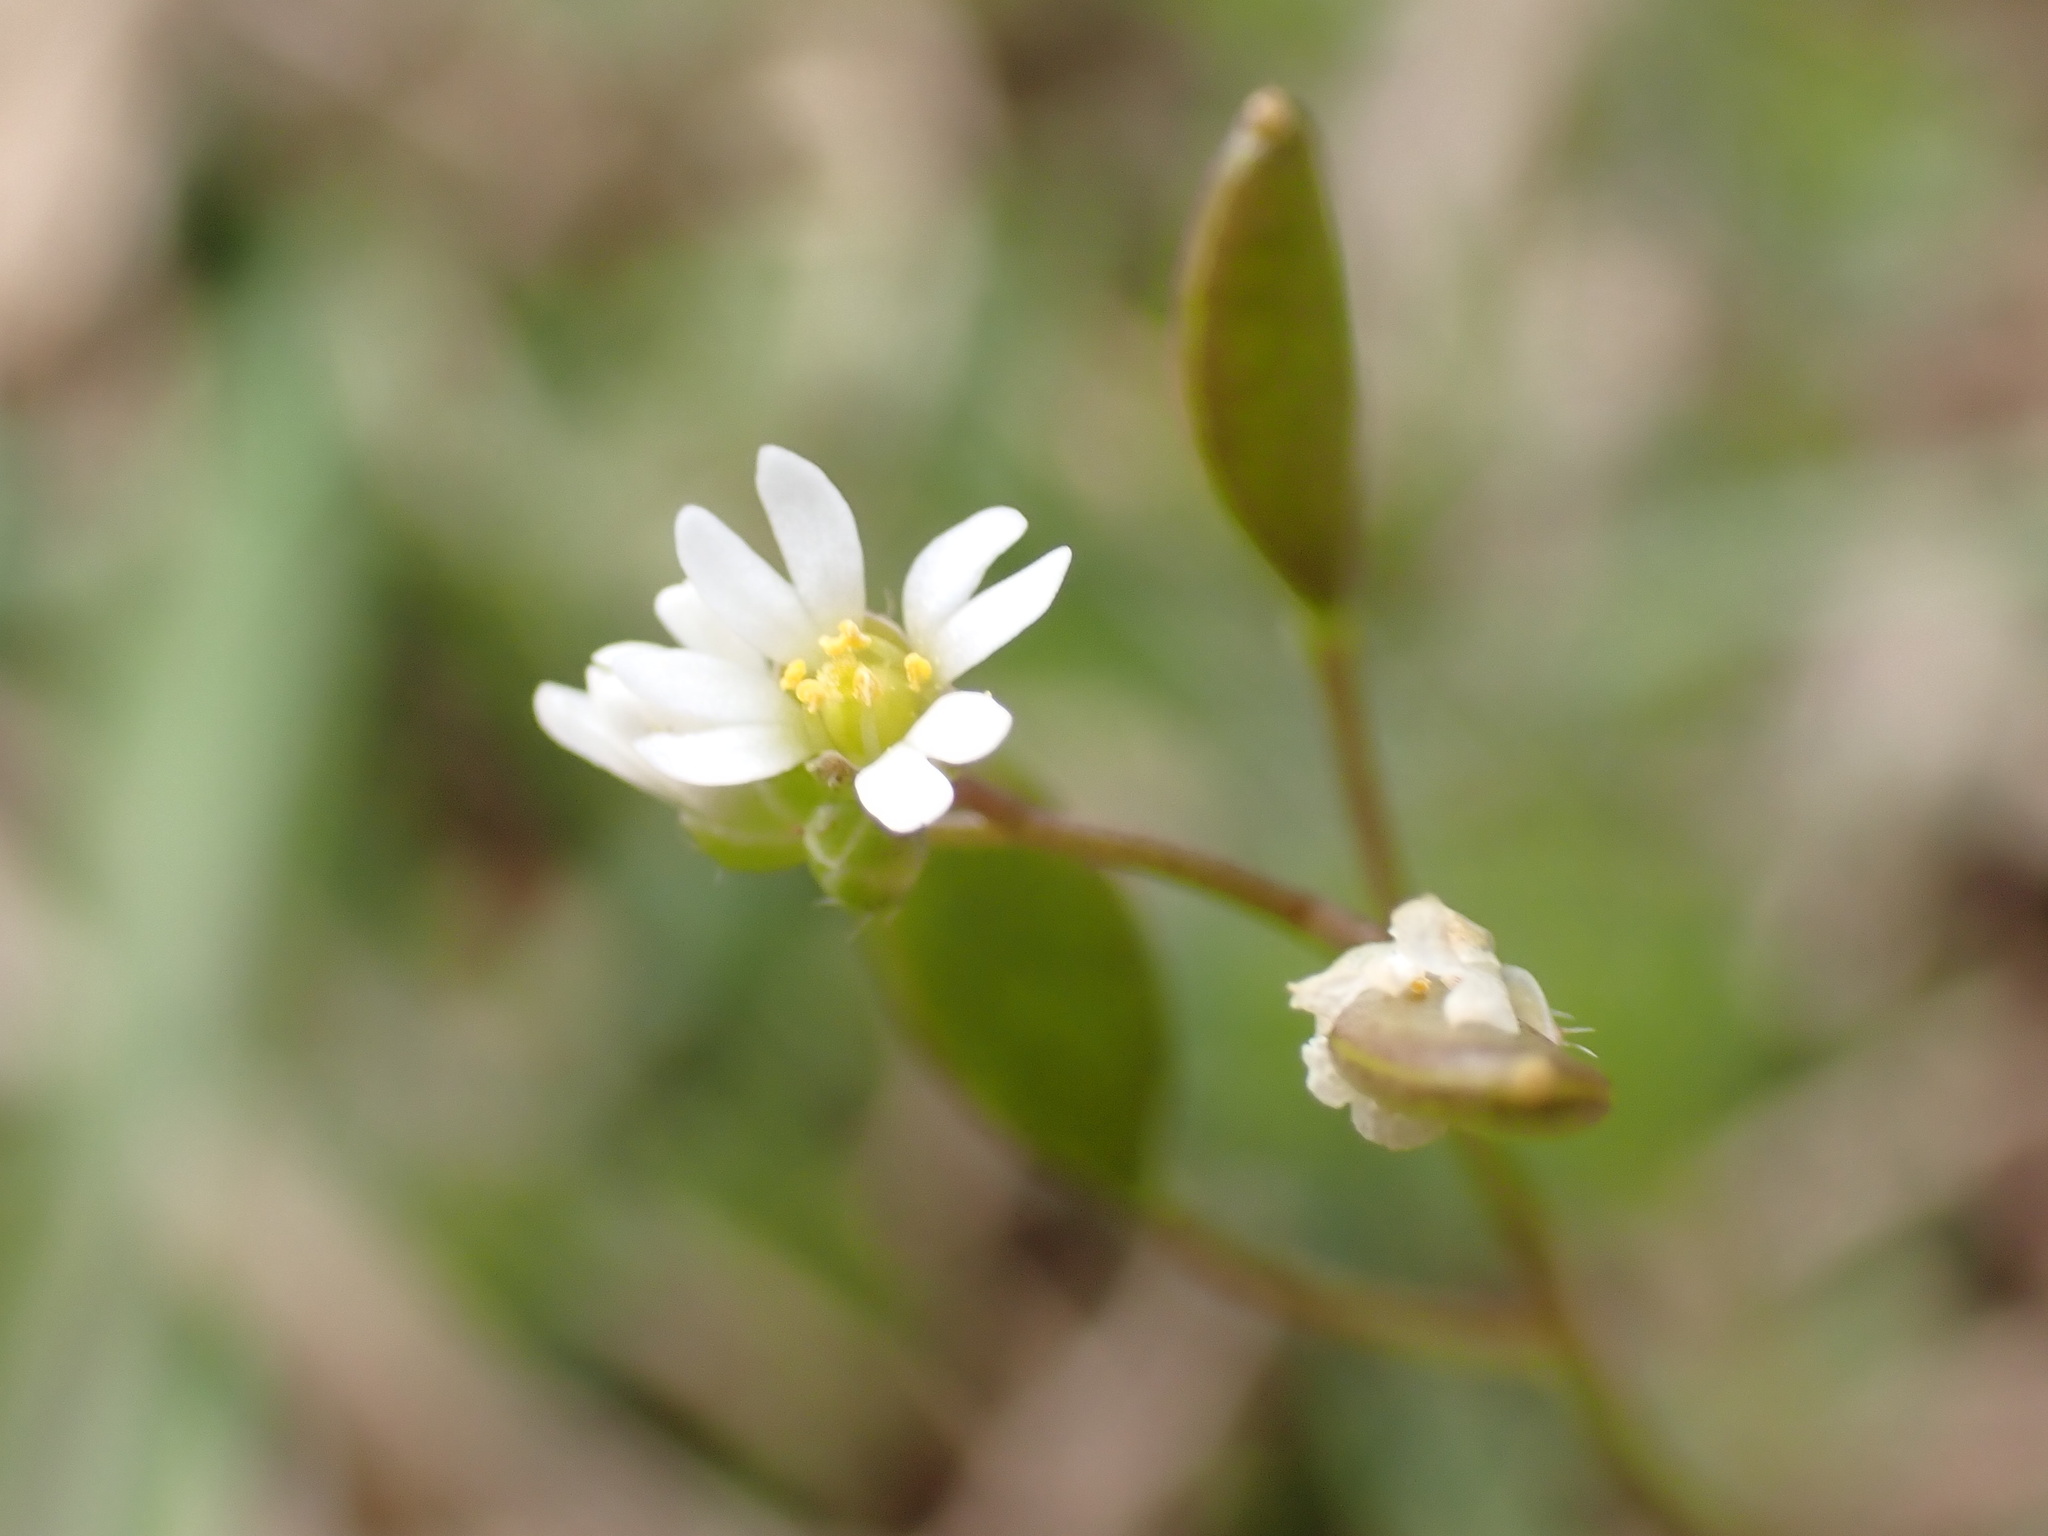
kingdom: Plantae
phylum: Tracheophyta
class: Magnoliopsida
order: Brassicales
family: Brassicaceae
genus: Draba
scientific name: Draba verna
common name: Spring draba
